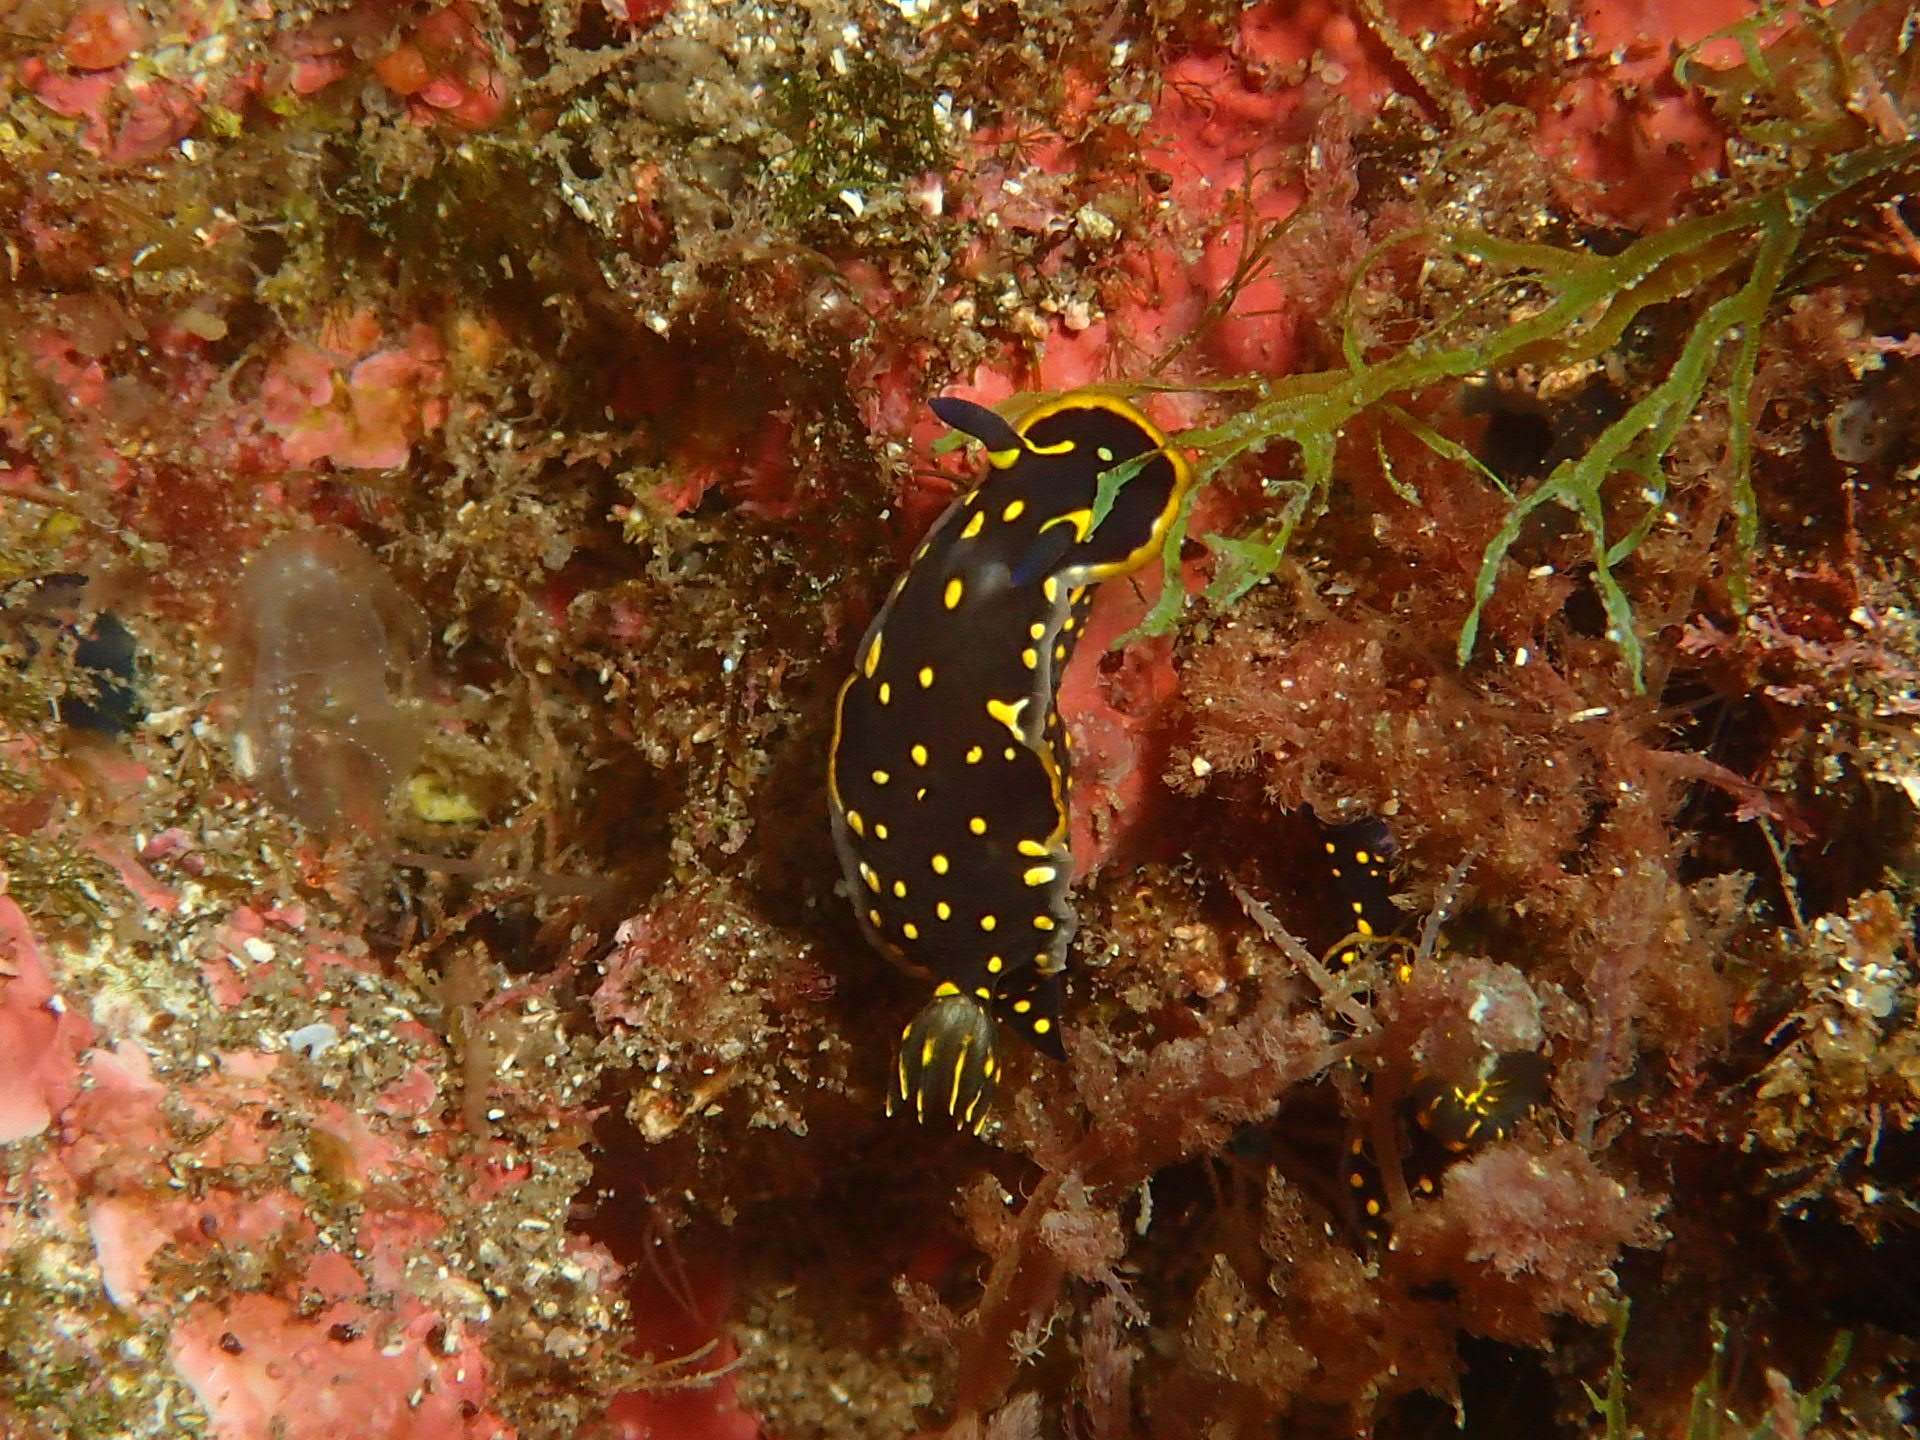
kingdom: Animalia
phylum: Mollusca
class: Gastropoda
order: Nudibranchia
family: Chromodorididae
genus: Felimare
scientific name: Felimare picta
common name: Giant doris
